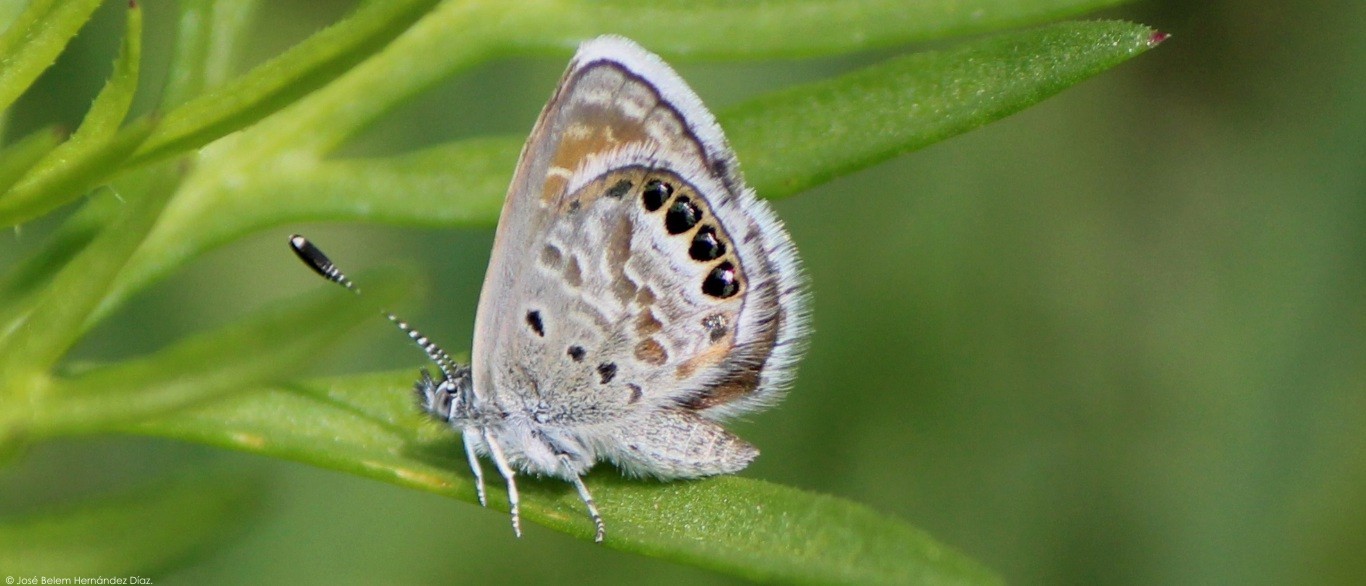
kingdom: Animalia
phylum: Arthropoda
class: Insecta
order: Lepidoptera
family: Lycaenidae
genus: Brephidium
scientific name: Brephidium exilis
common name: Pygmy blue
